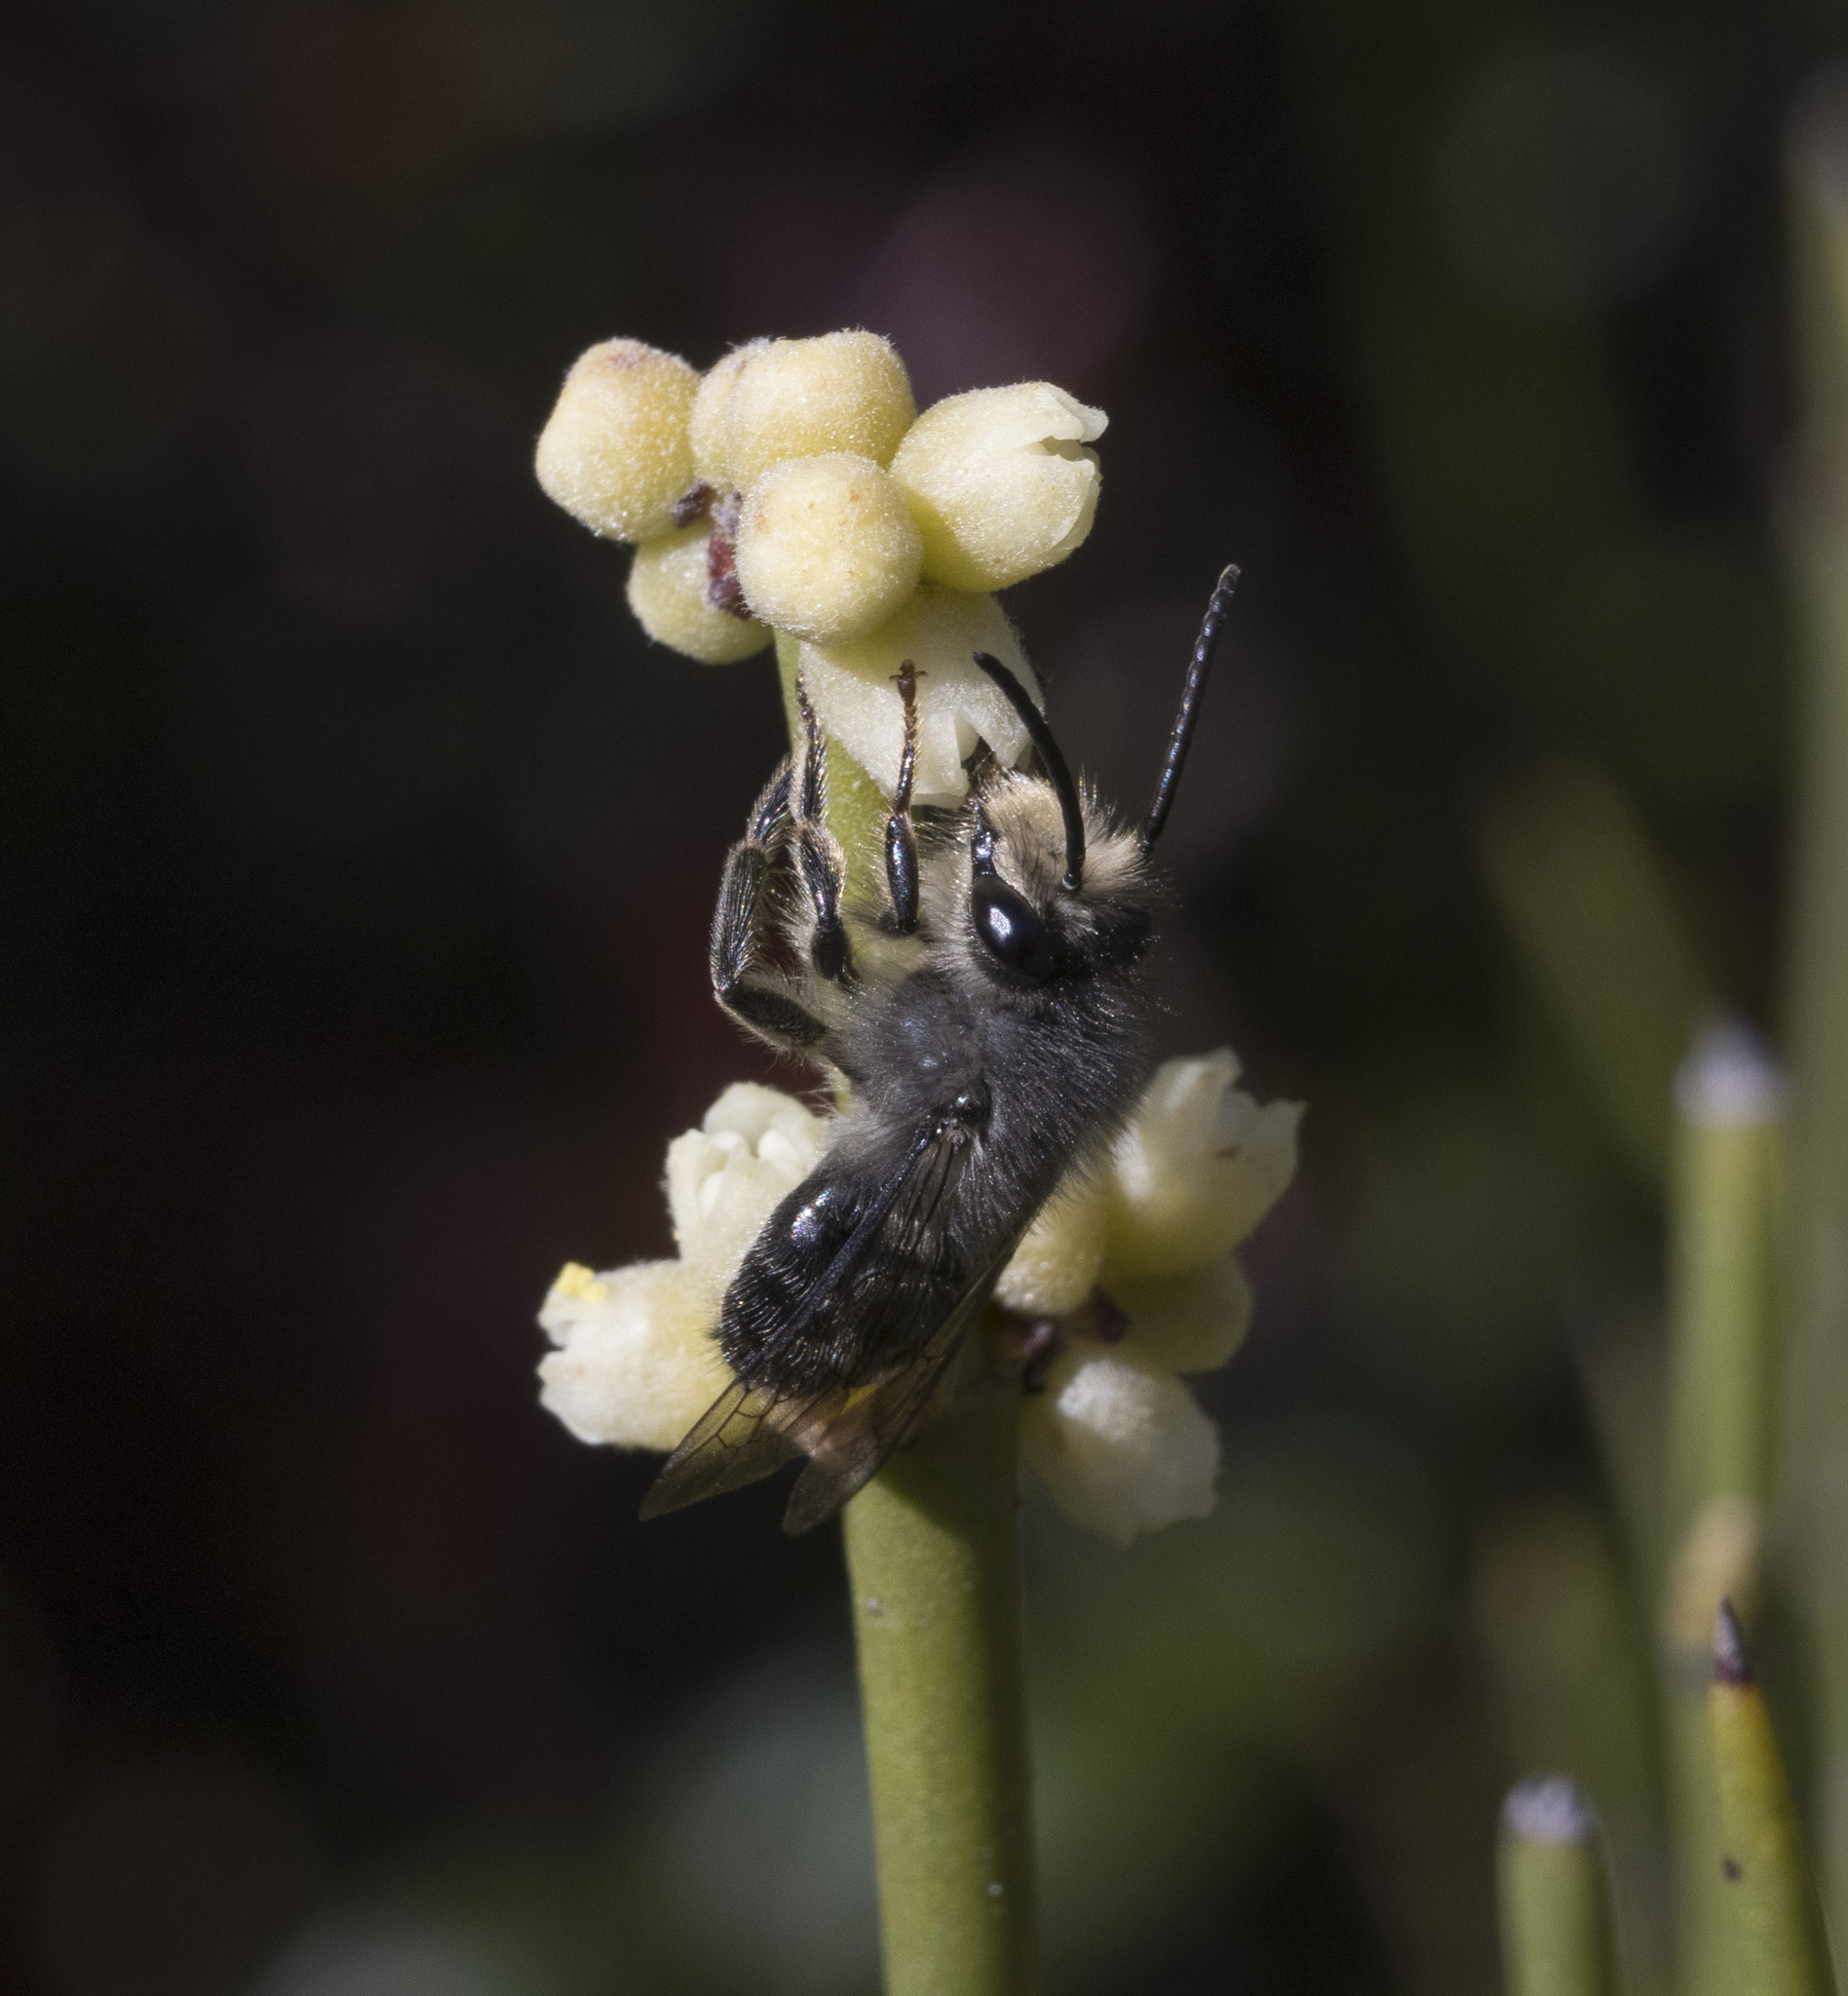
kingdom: Animalia
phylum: Arthropoda
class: Insecta
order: Hymenoptera
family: Colletidae
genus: Cadeguala
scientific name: Cadeguala albopilosa
